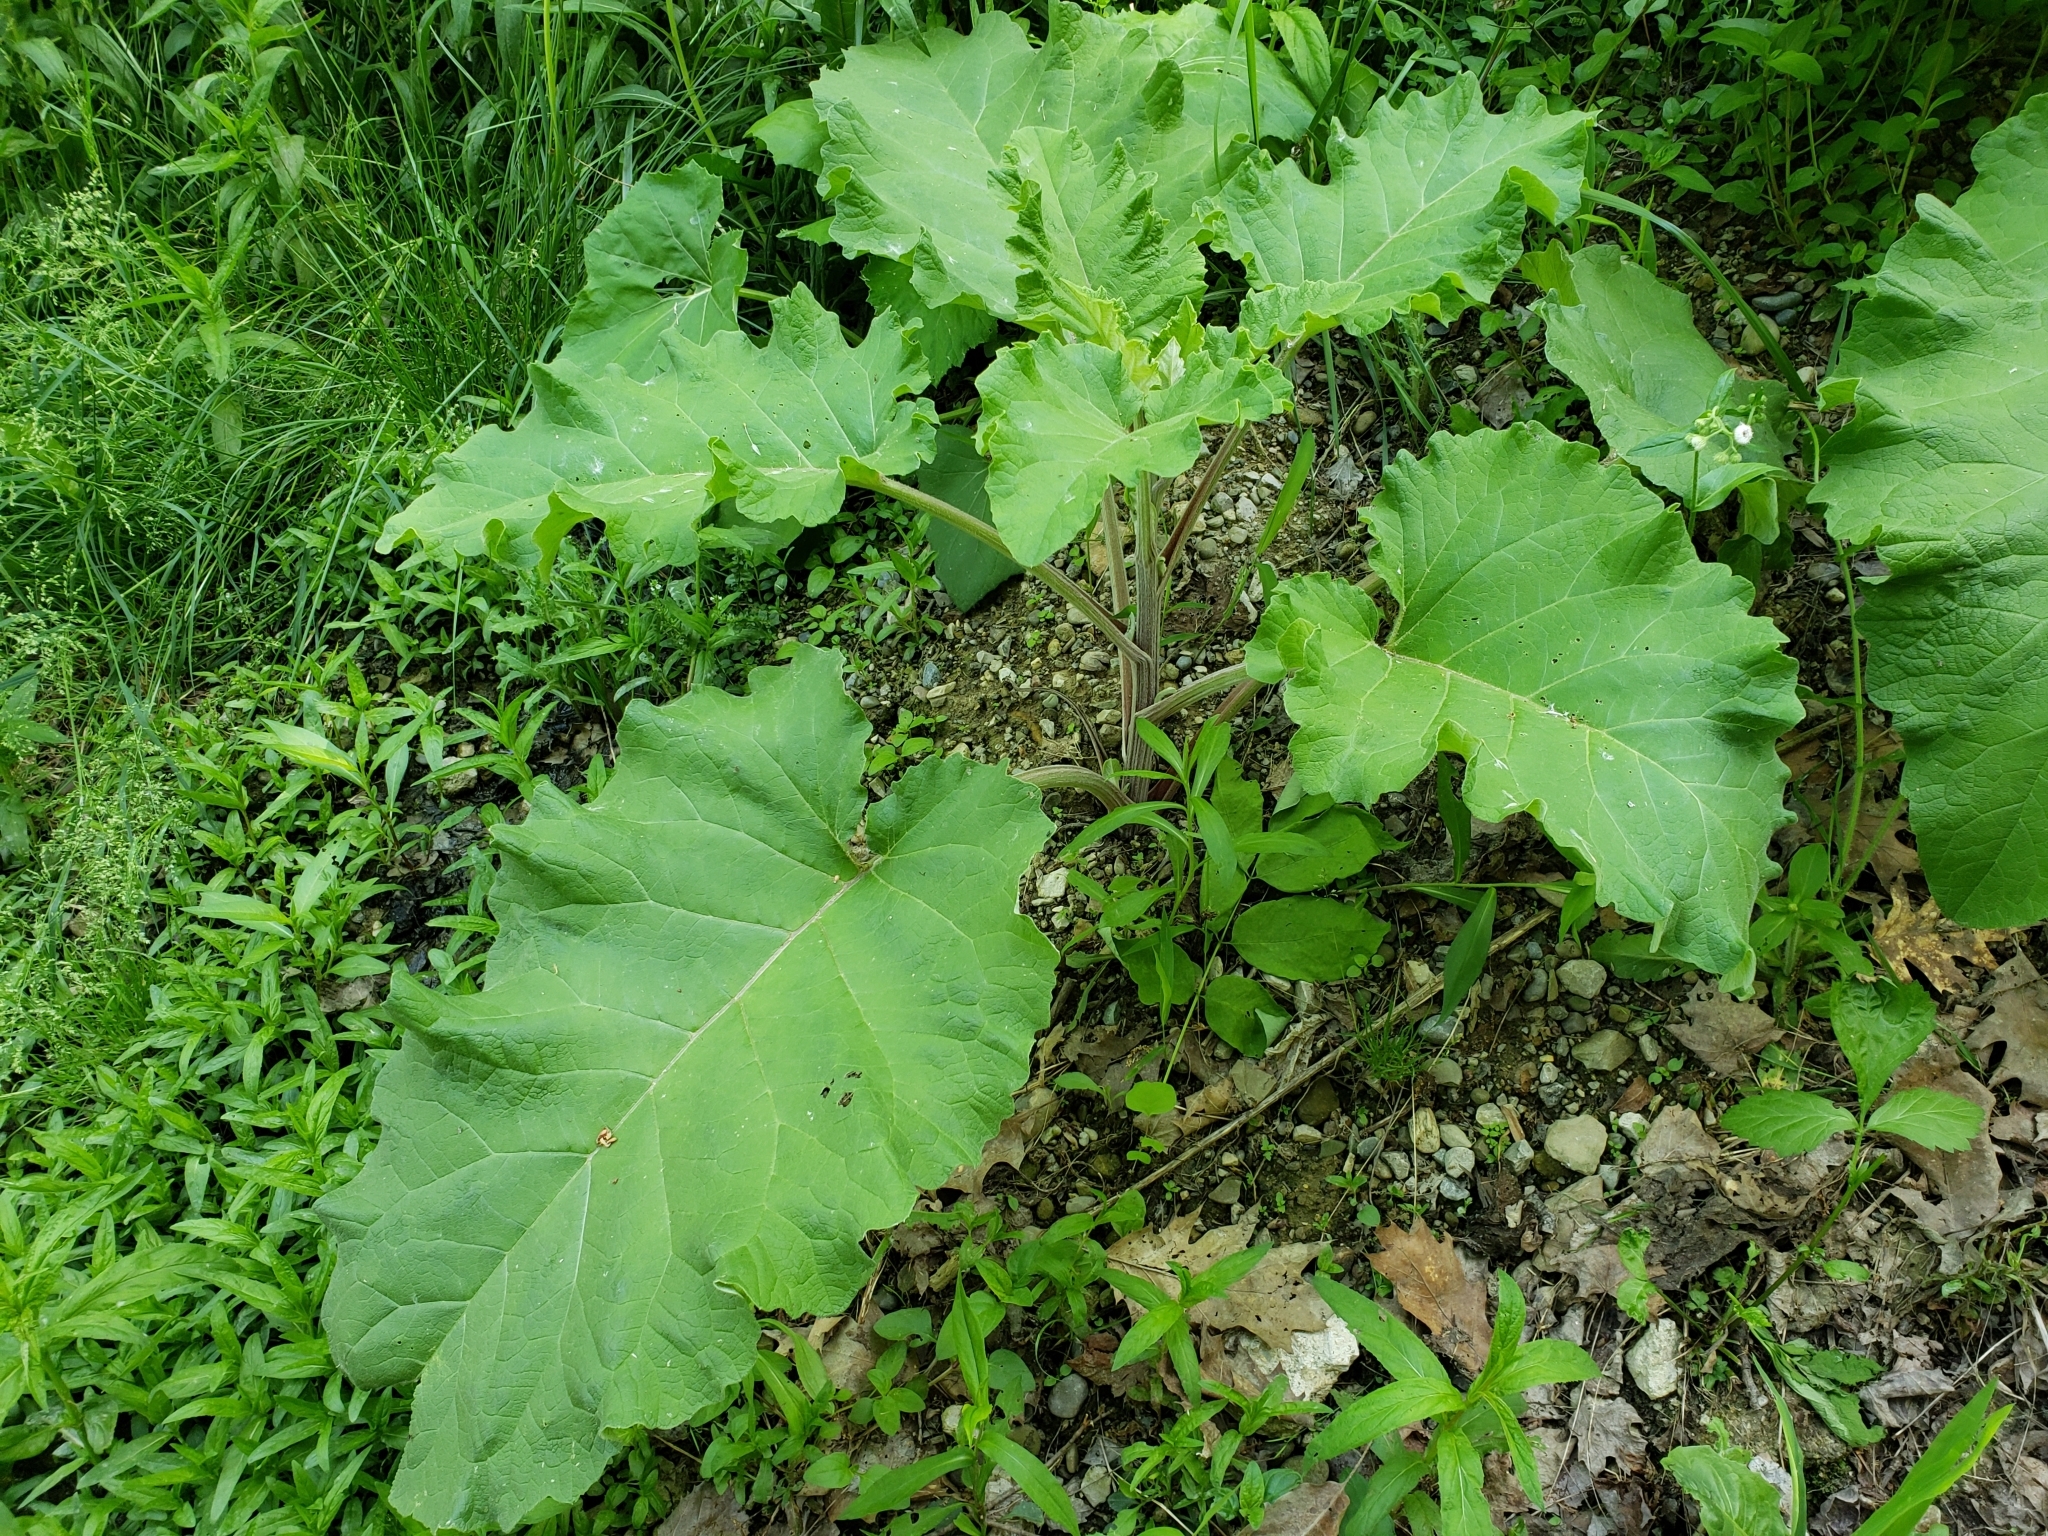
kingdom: Plantae
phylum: Tracheophyta
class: Magnoliopsida
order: Asterales
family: Asteraceae
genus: Arctium
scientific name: Arctium lappa
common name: Greater burdock
